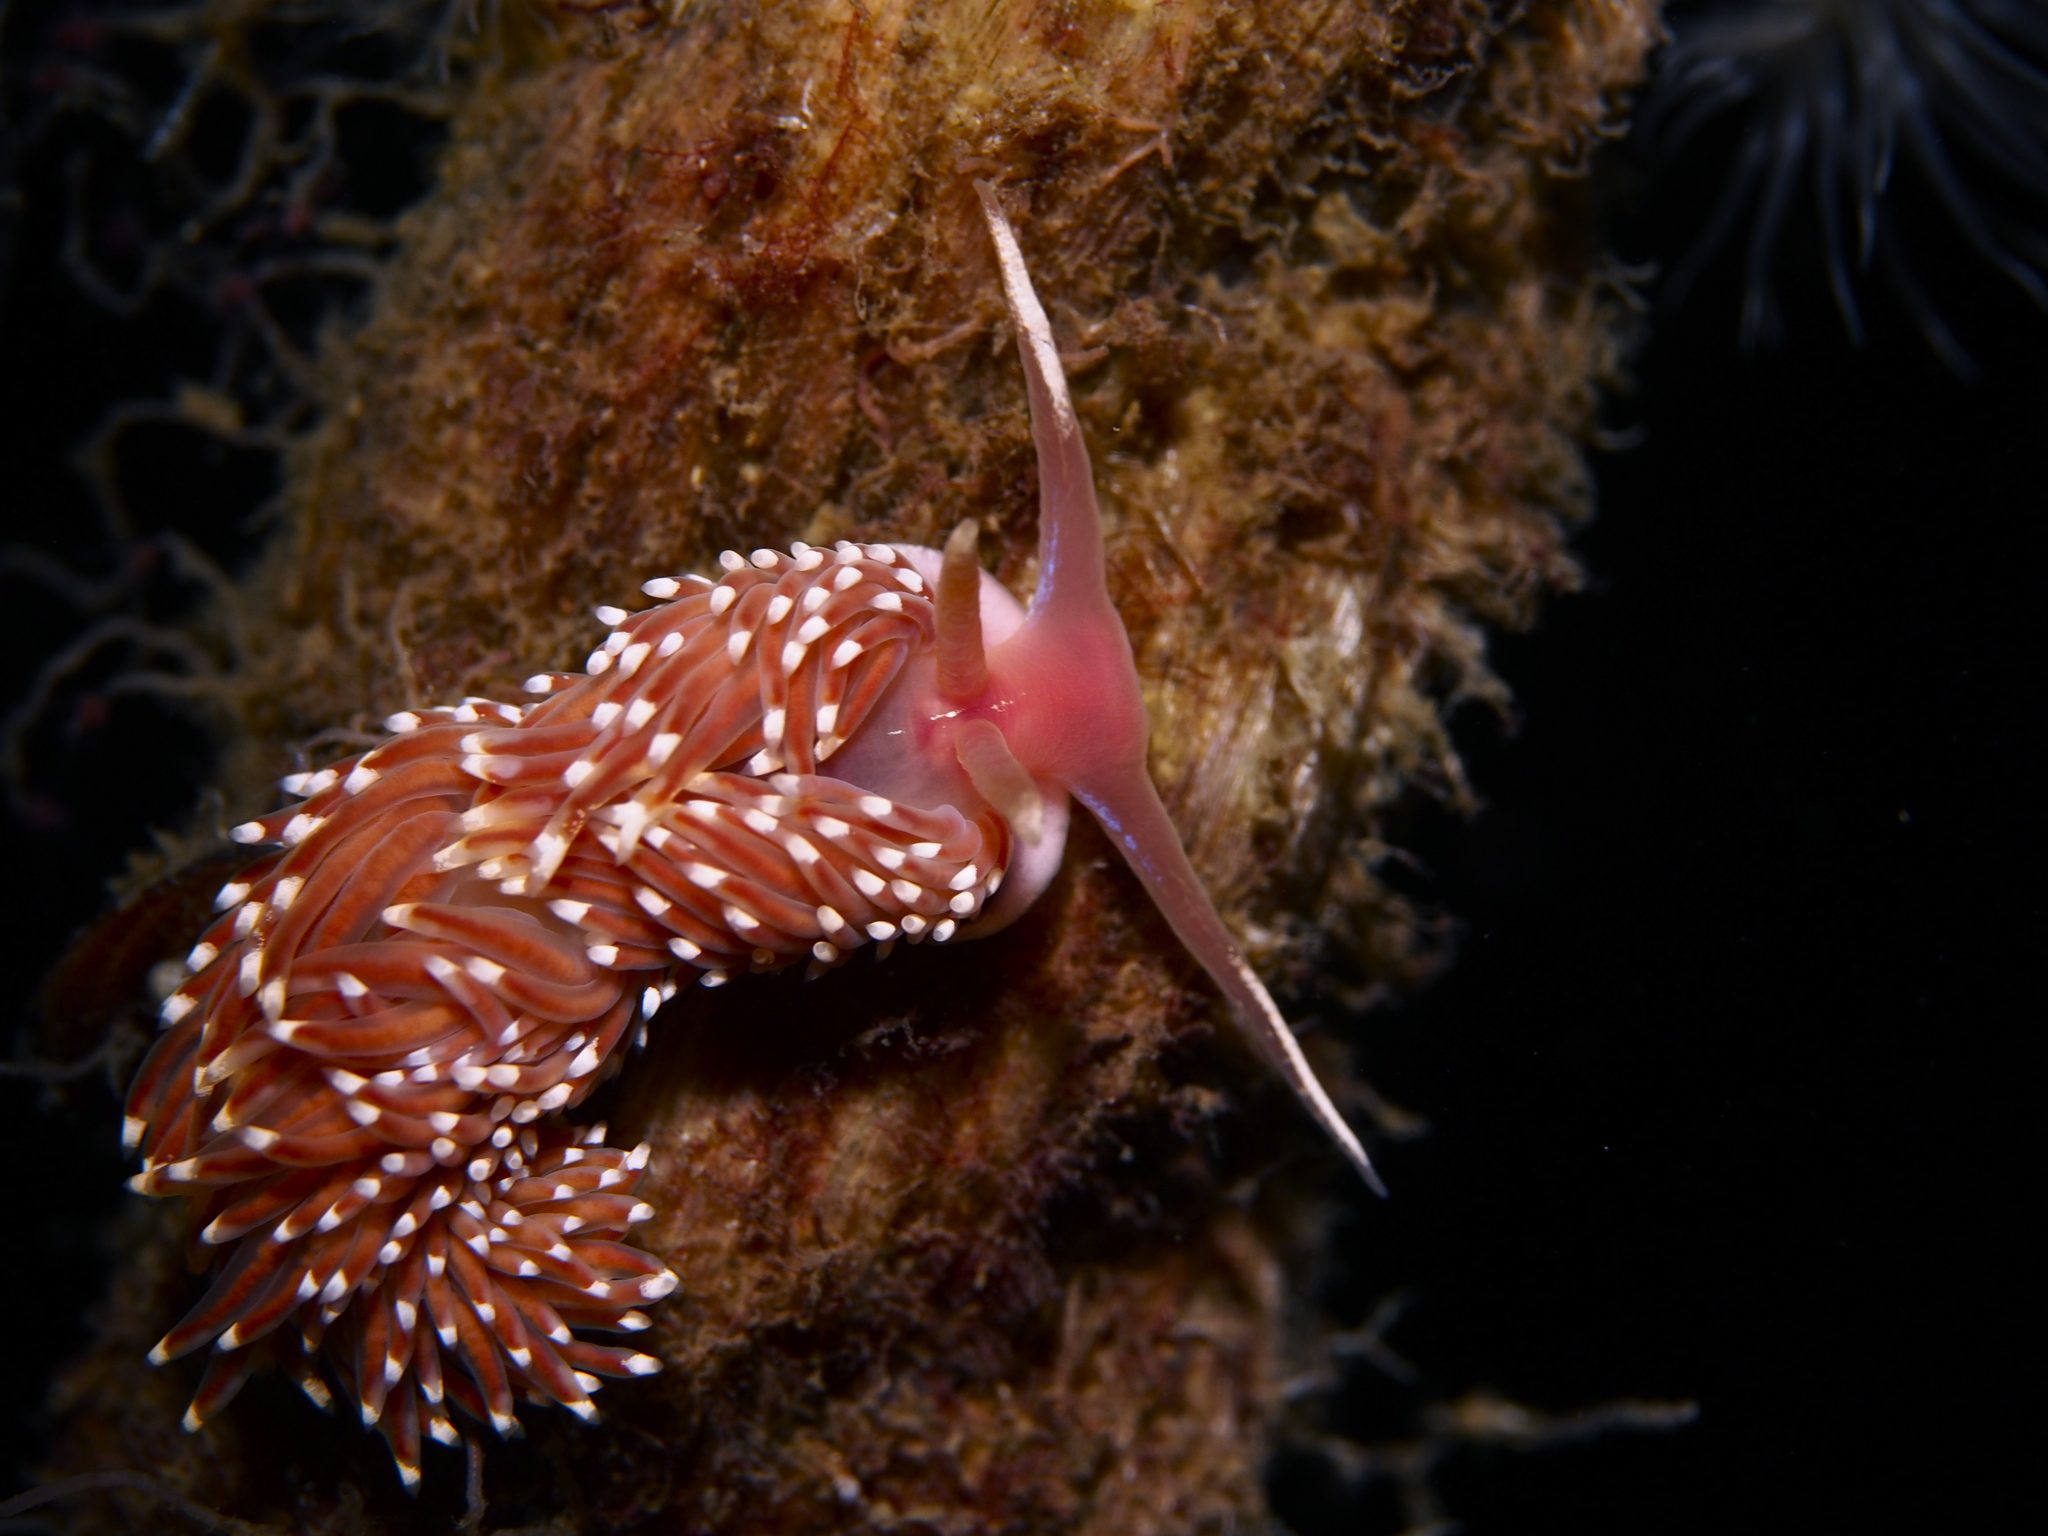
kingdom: Animalia
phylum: Mollusca
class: Gastropoda
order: Nudibranchia
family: Facelinidae
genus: Facelina
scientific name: Facelina bostoniensis
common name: Boston facelina
